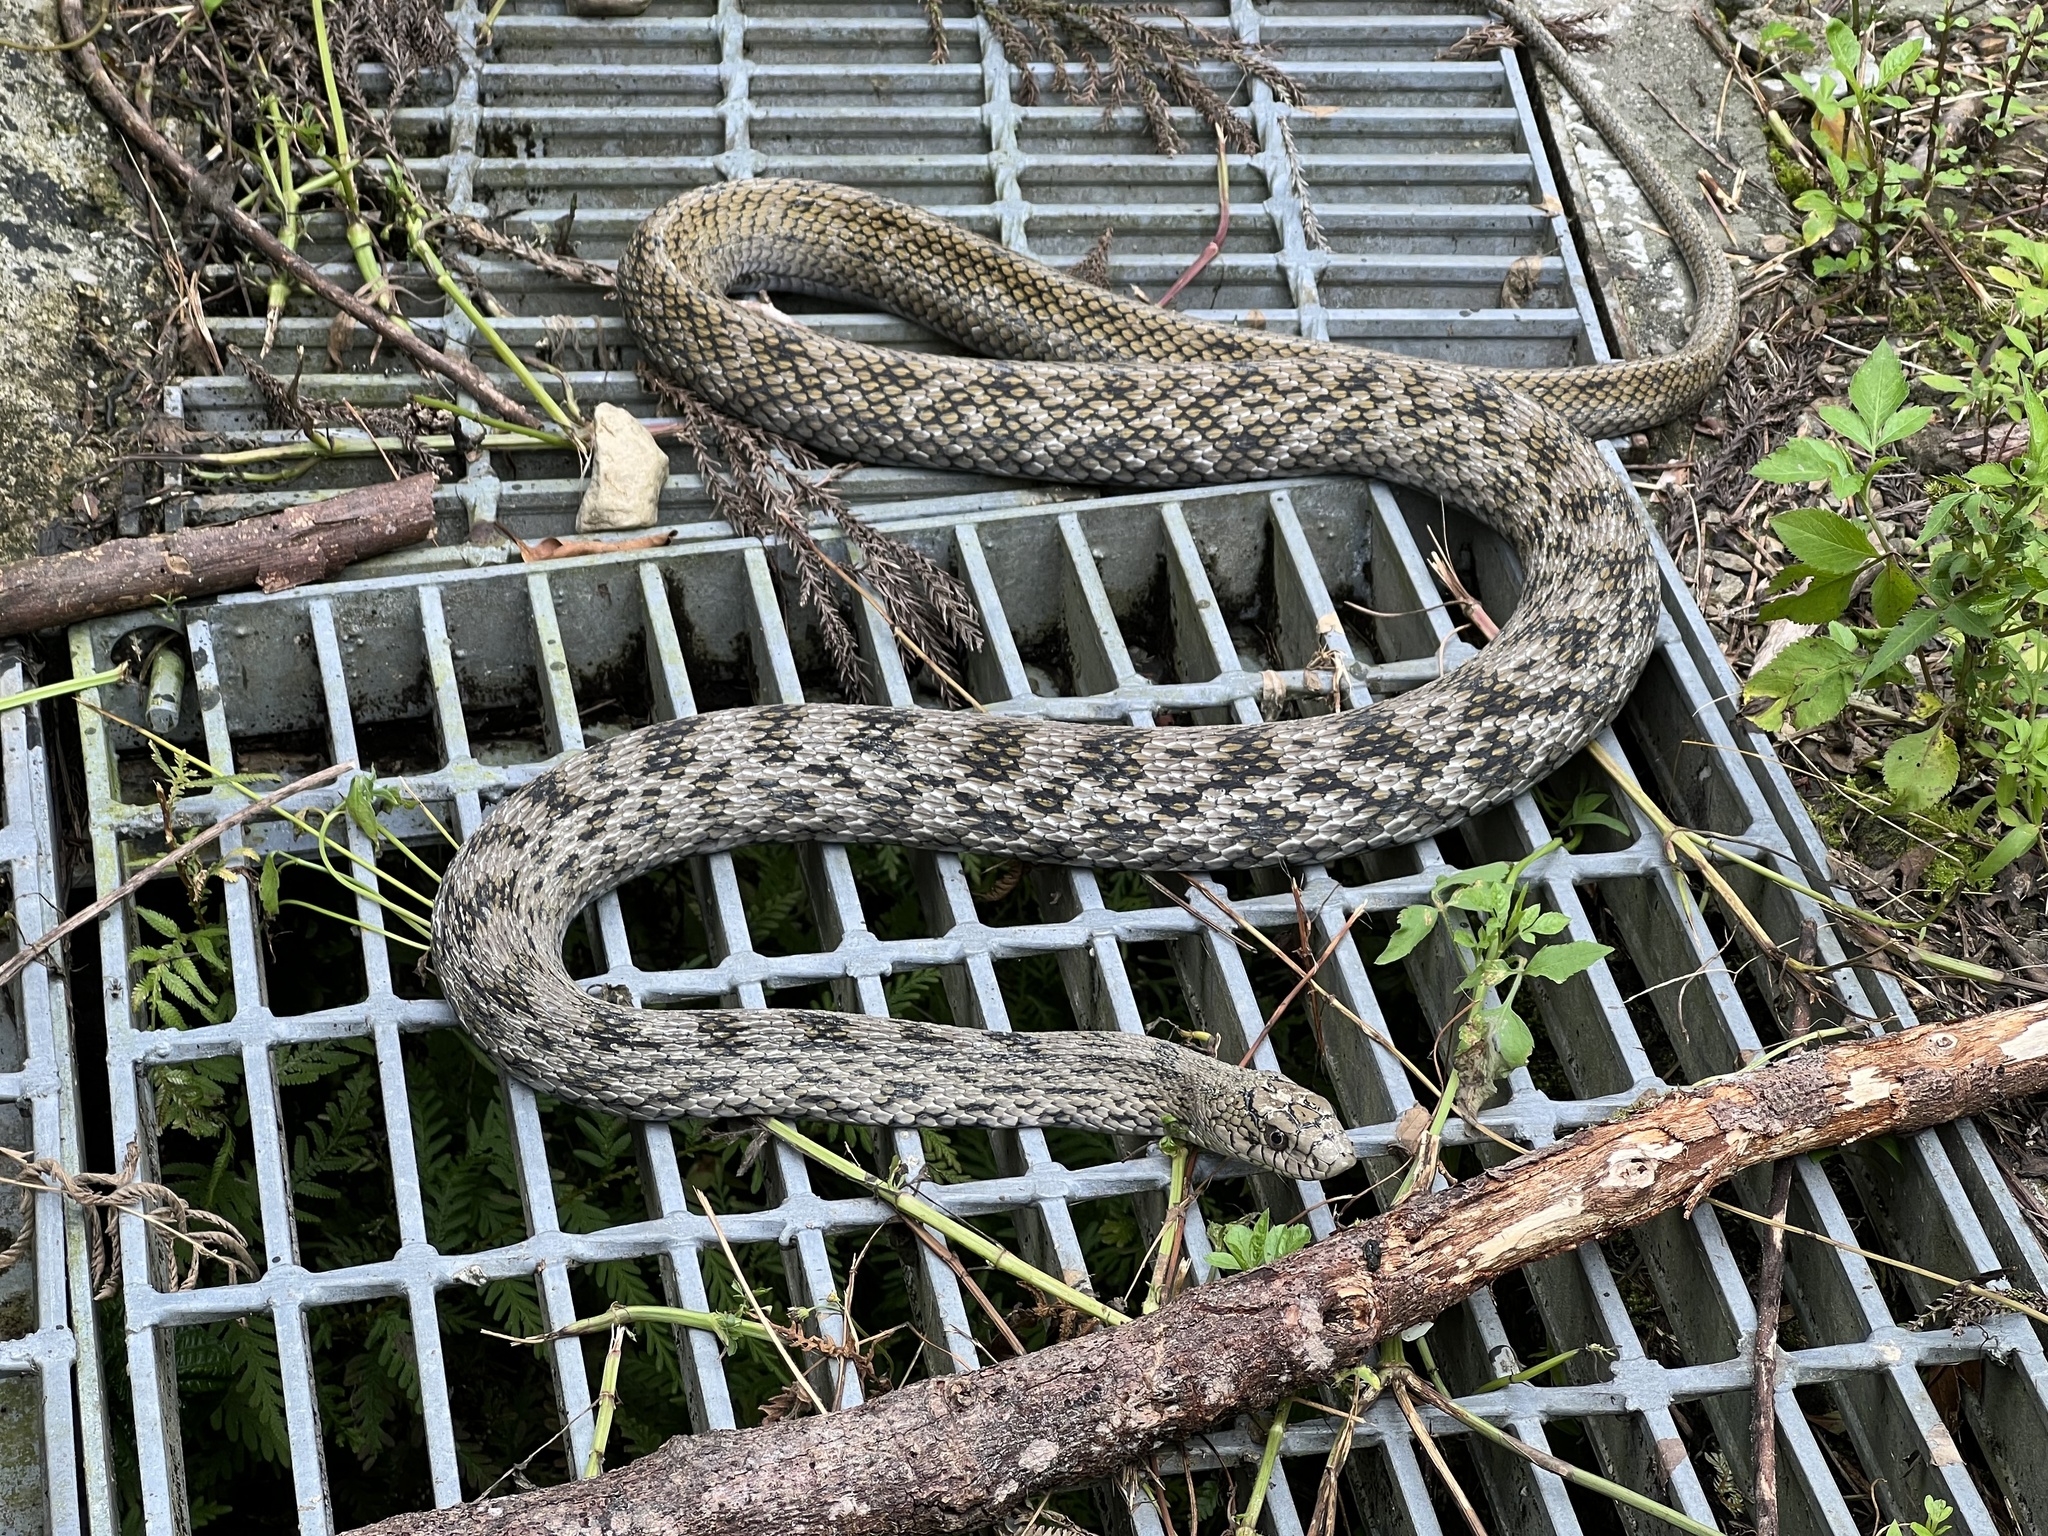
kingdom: Animalia
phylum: Chordata
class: Squamata
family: Colubridae
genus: Elaphe
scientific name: Elaphe carinata
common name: Taiwan stink snake
